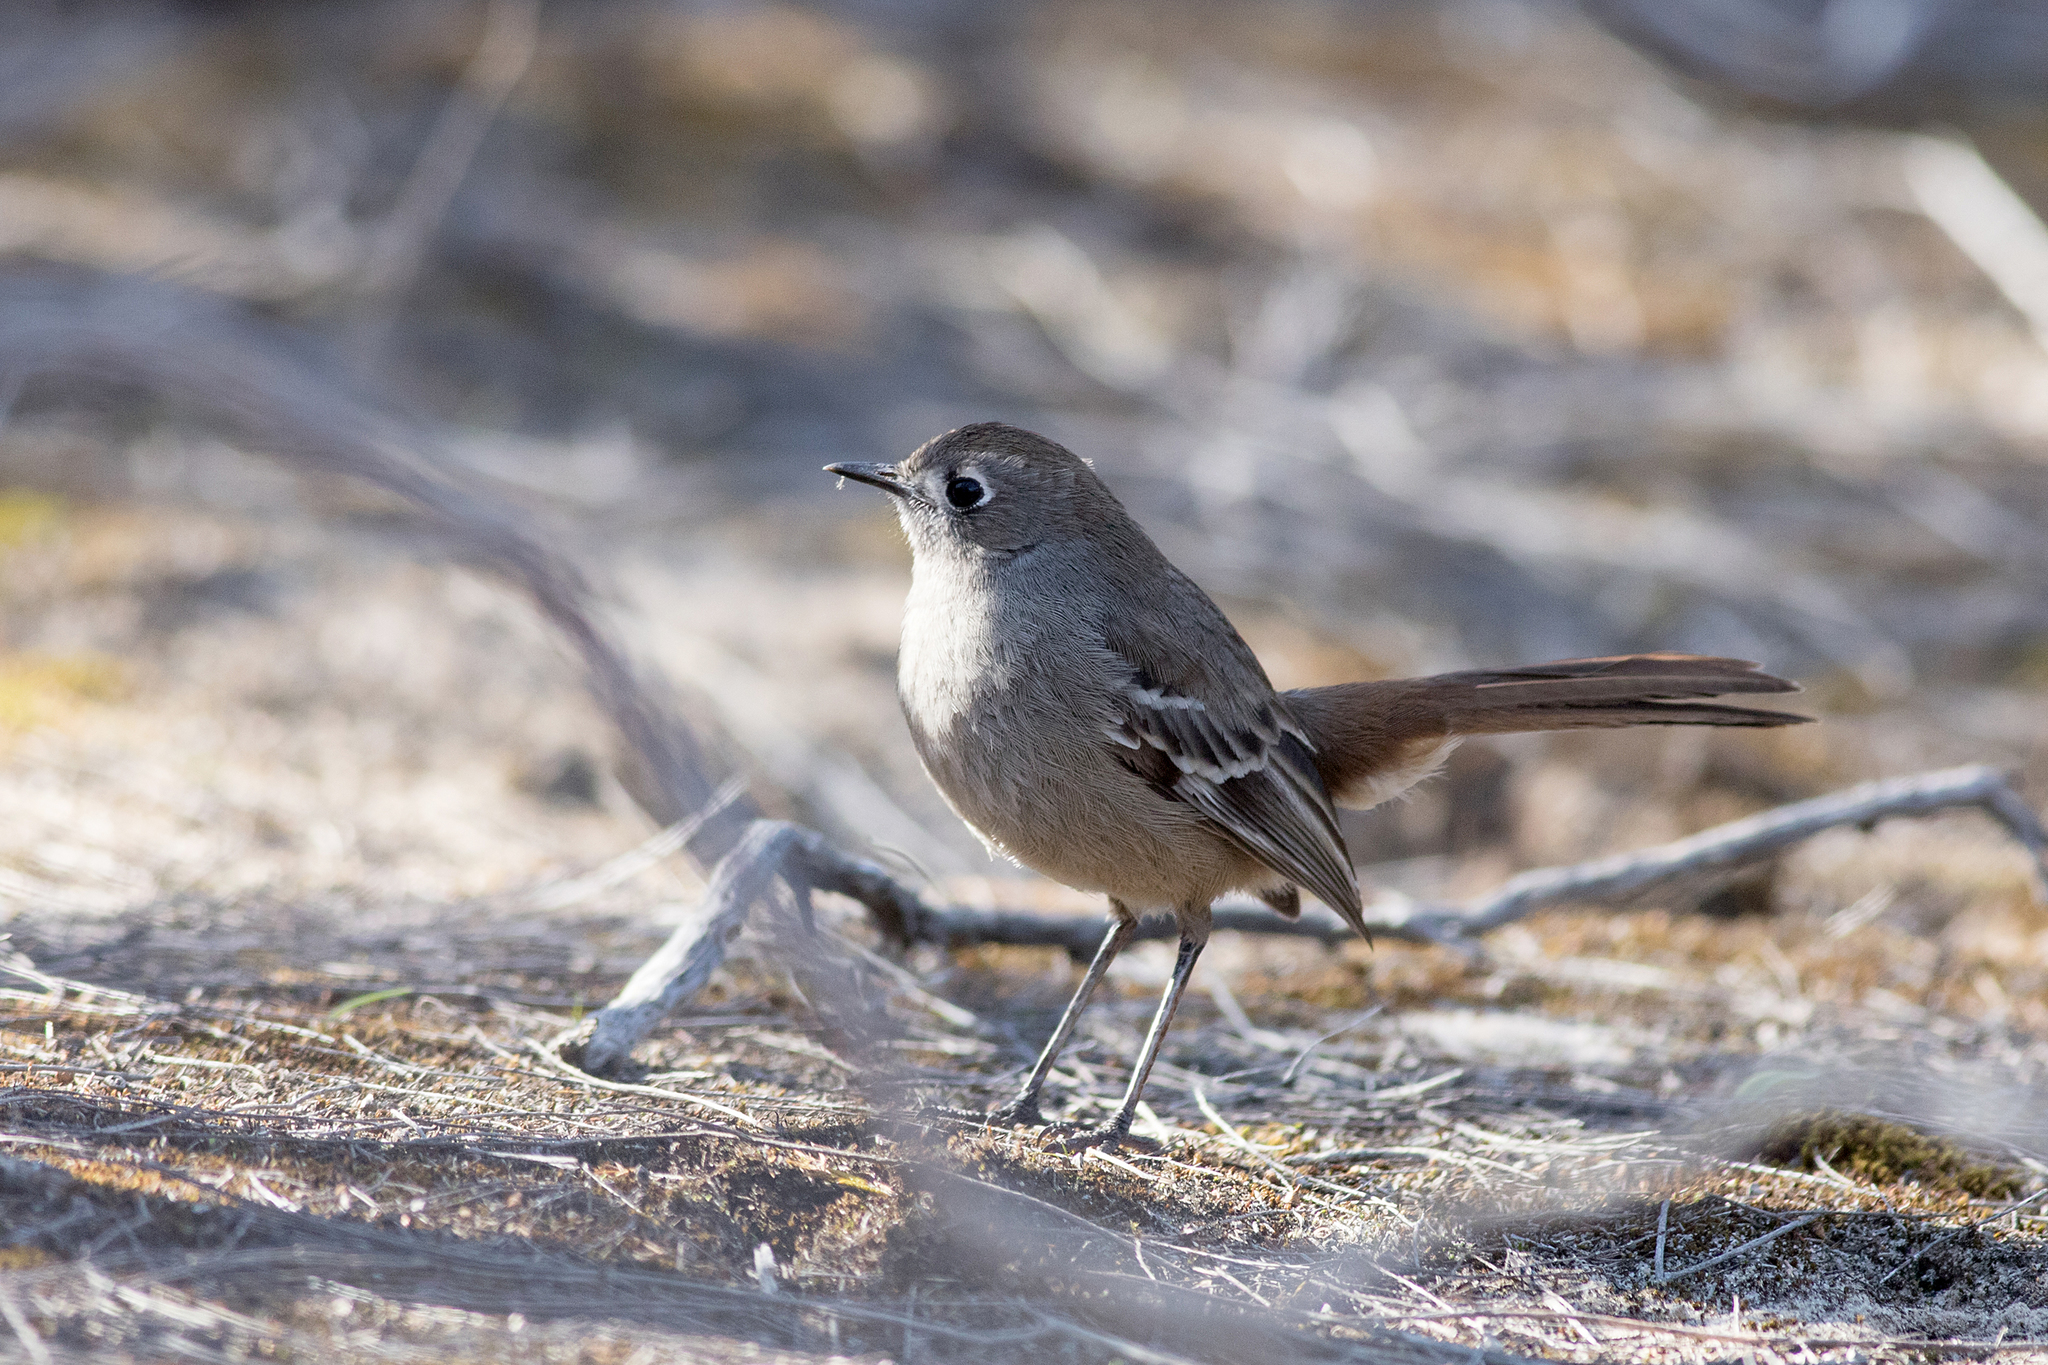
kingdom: Animalia
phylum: Chordata
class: Aves
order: Passeriformes
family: Petroicidae
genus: Drymodes
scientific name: Drymodes brunneopygia
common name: Southern scrub robin
